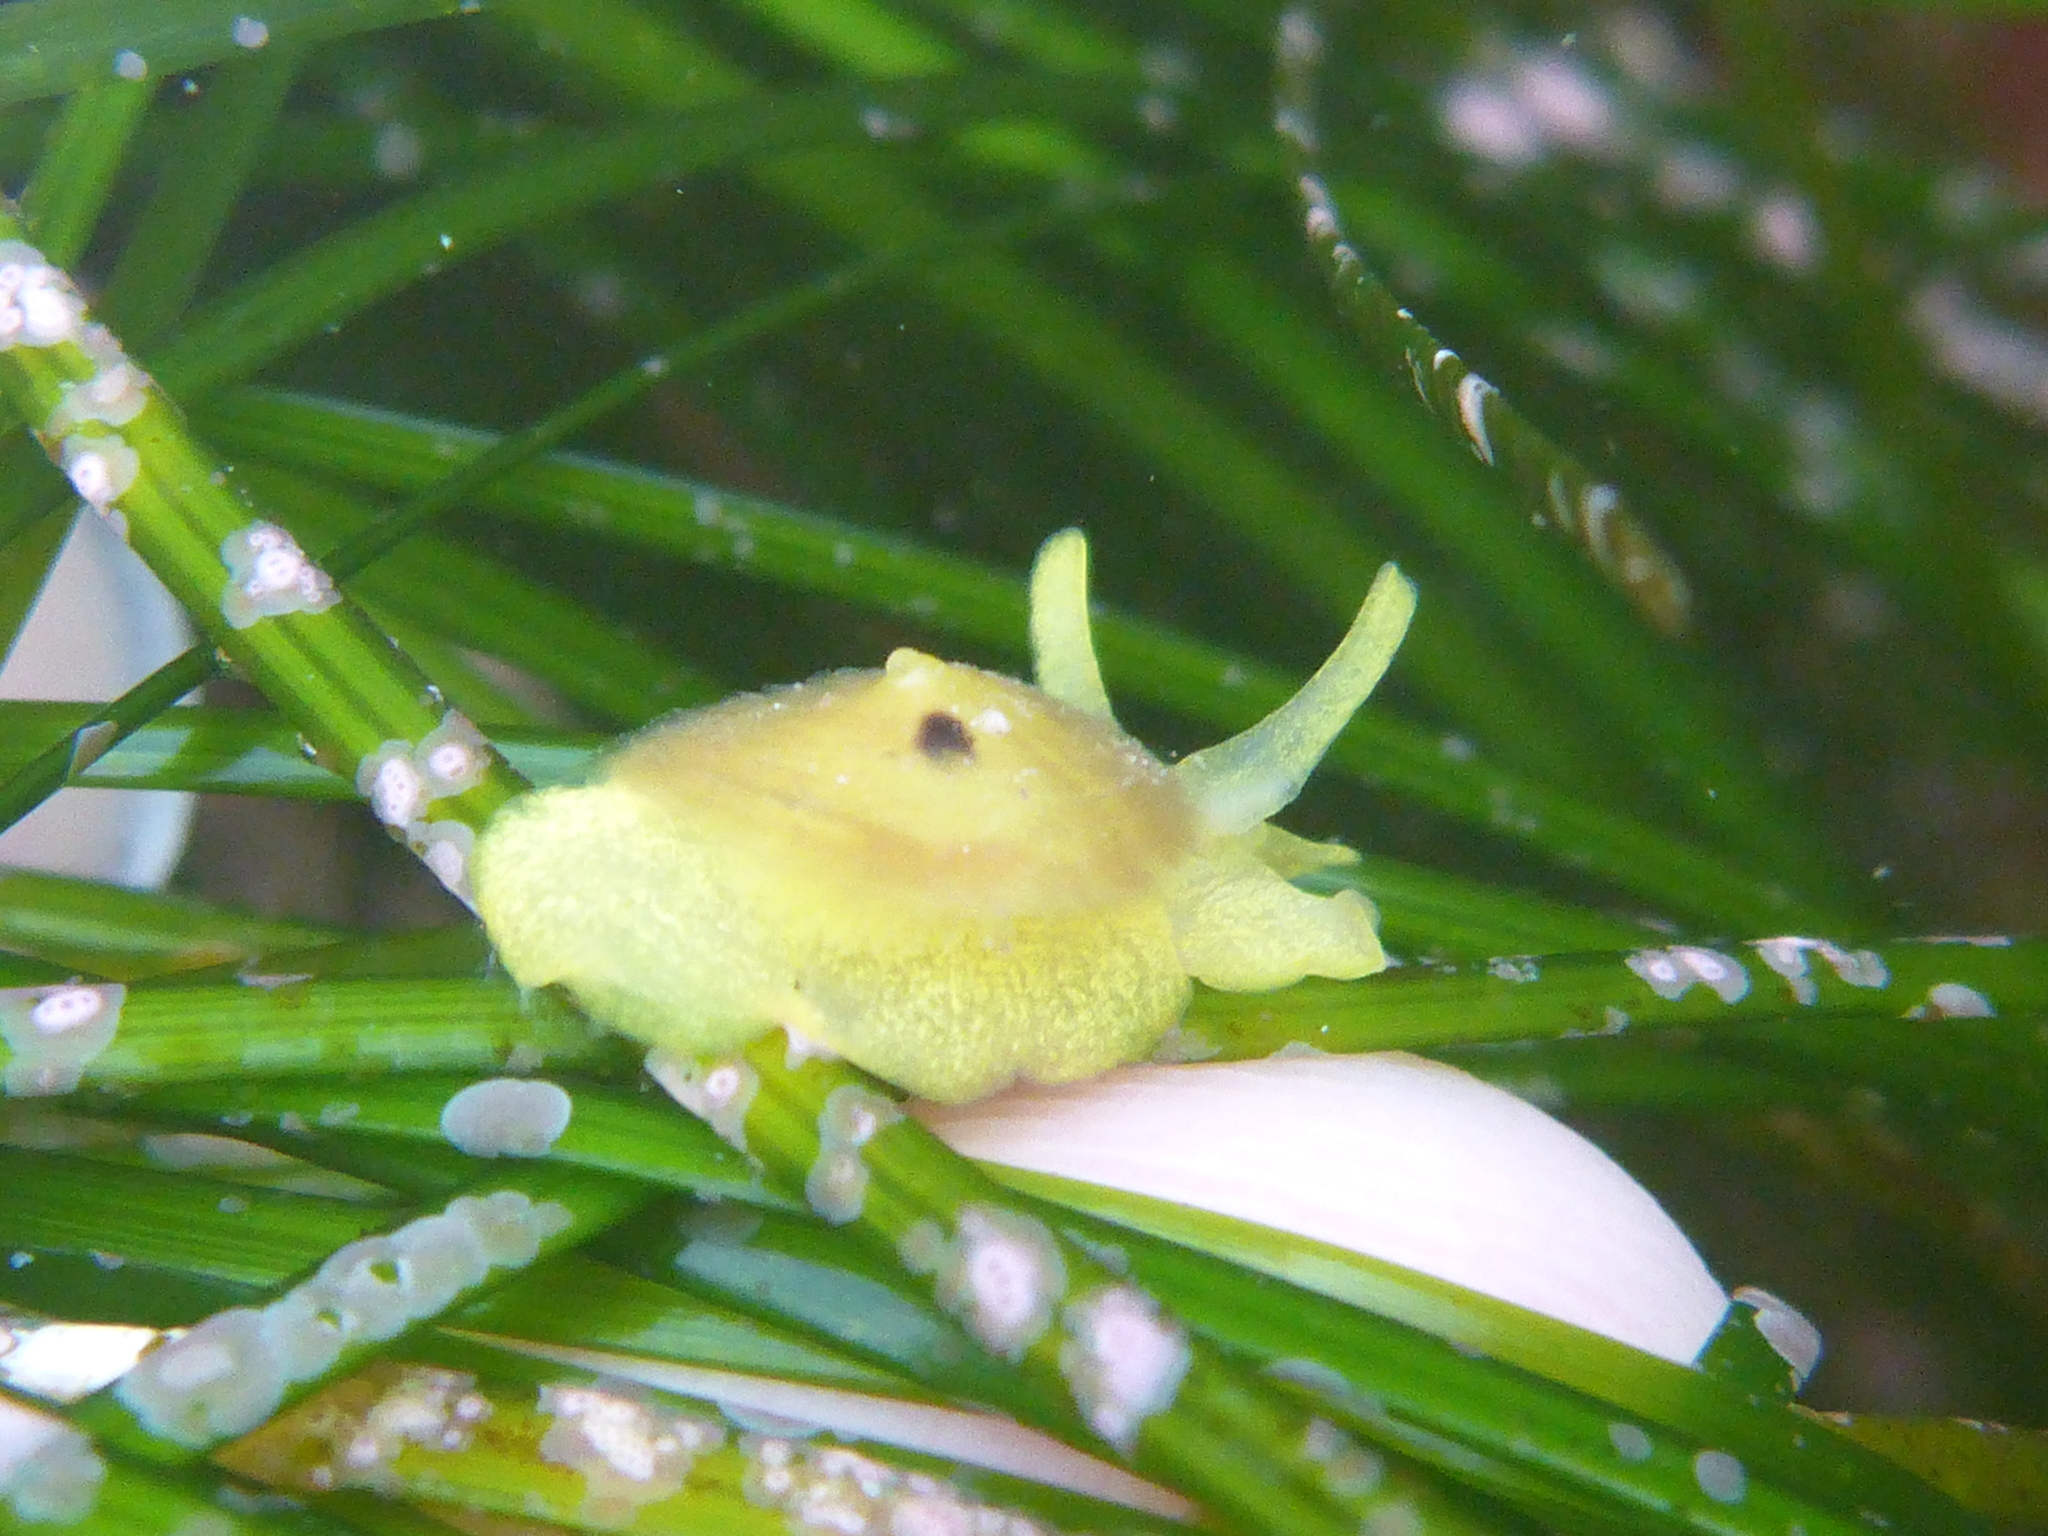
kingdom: Animalia
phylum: Mollusca
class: Gastropoda
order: Umbraculida
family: Tylodinidae
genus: Tylodina
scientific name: Tylodina fungina
